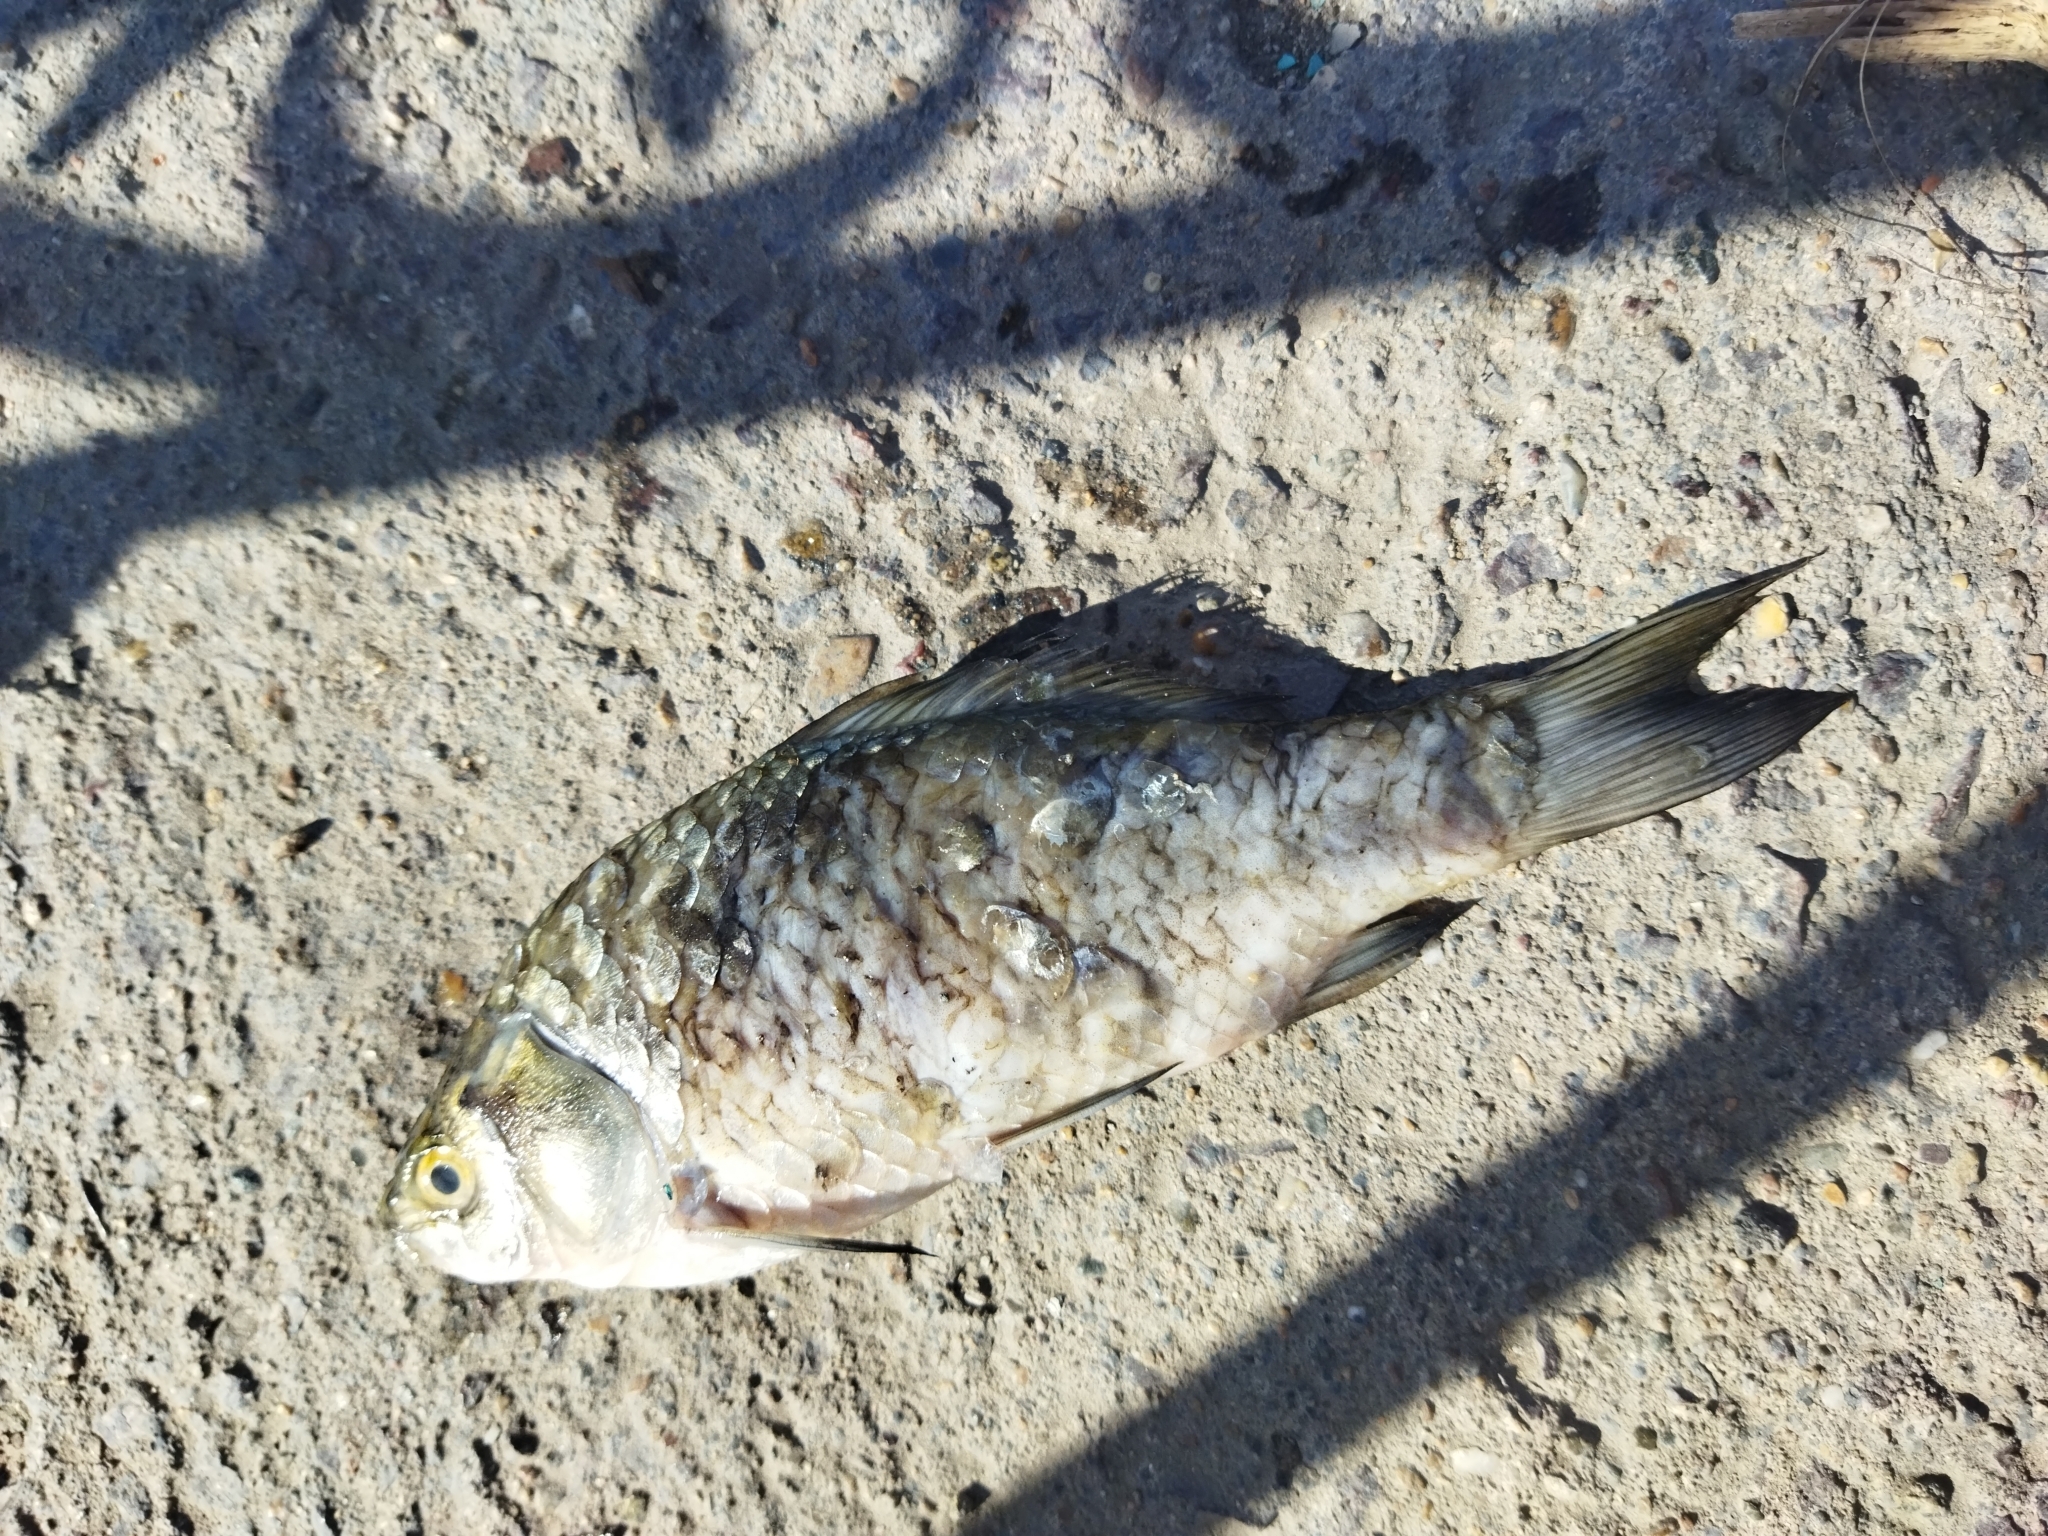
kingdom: Animalia
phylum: Chordata
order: Cypriniformes
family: Cyprinidae
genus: Carassius
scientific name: Carassius gibelio
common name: Prussian carp
